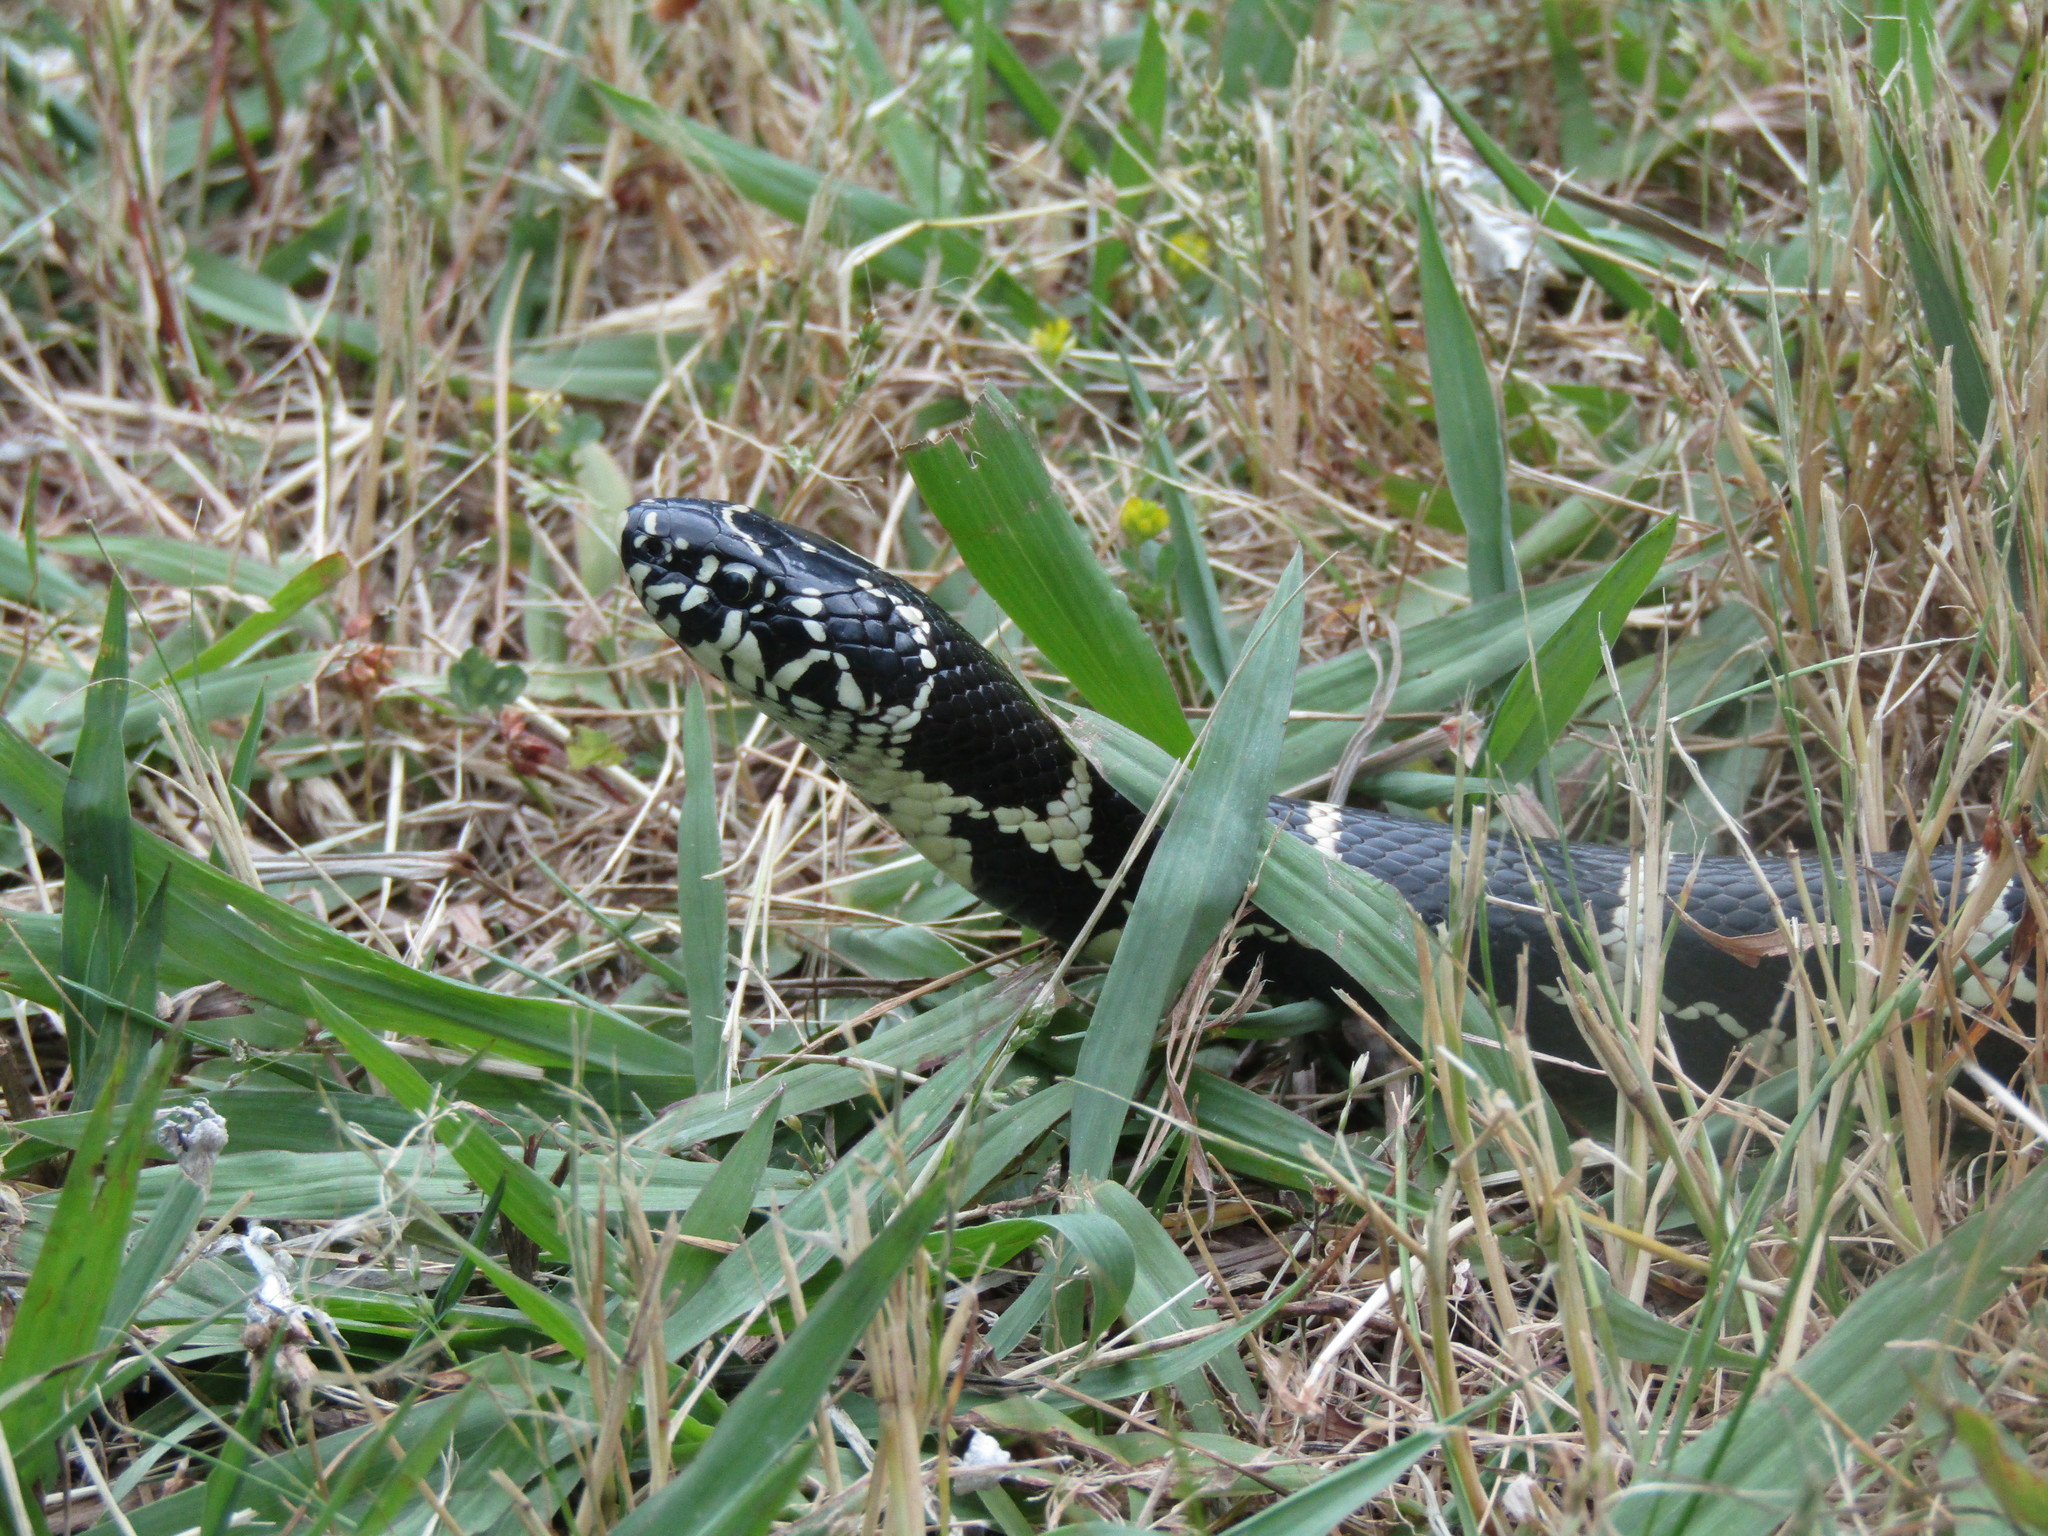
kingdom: Animalia
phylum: Chordata
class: Squamata
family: Colubridae
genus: Lampropeltis
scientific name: Lampropeltis getula
